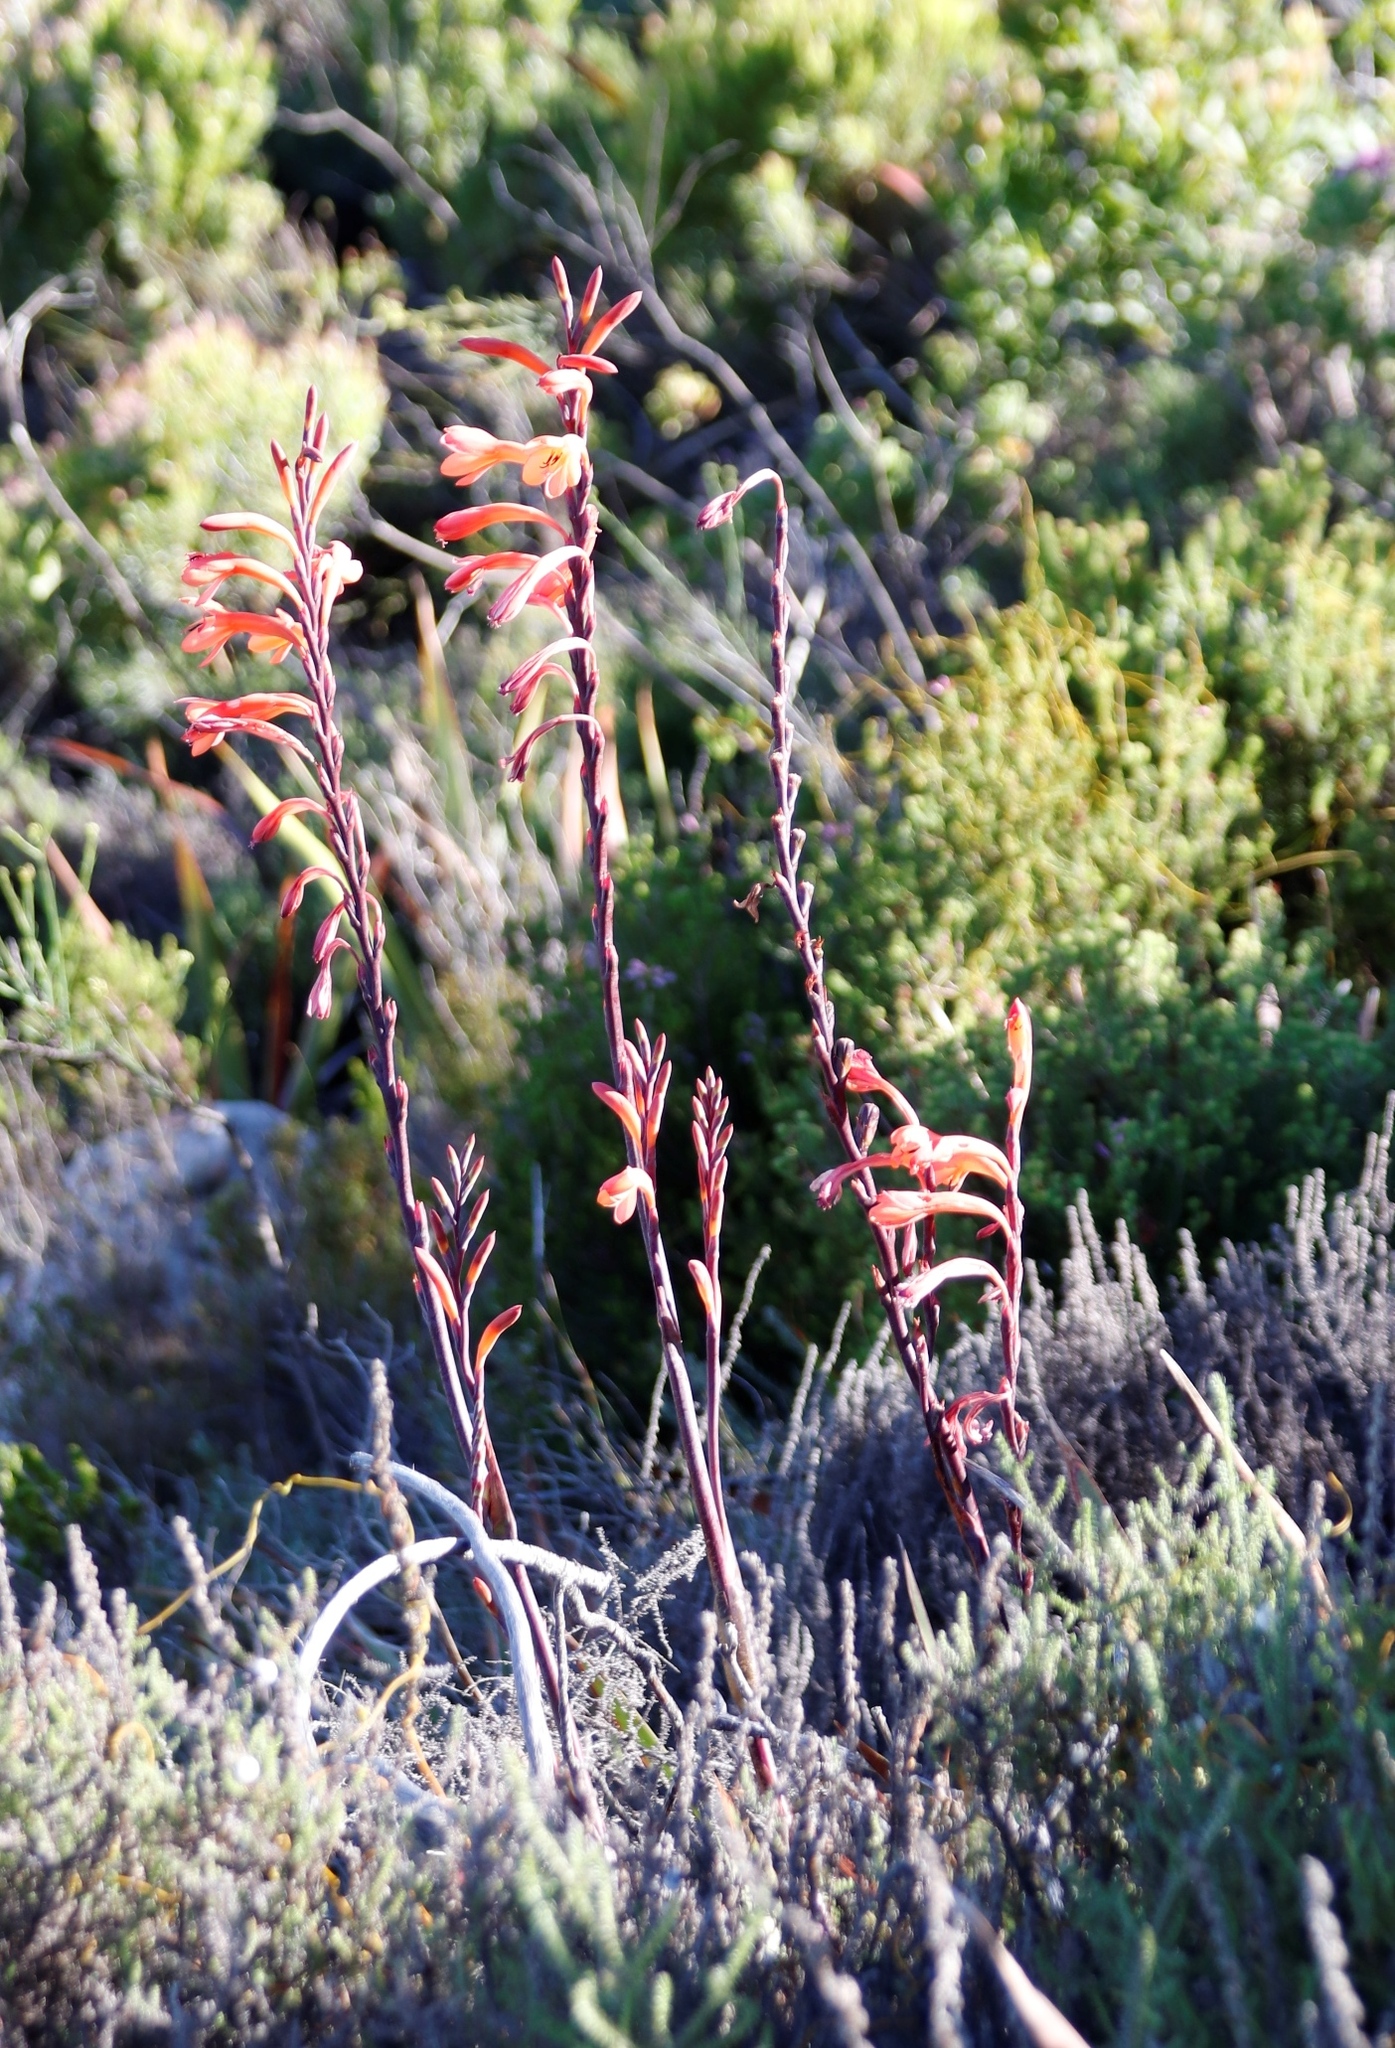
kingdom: Plantae
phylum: Tracheophyta
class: Liliopsida
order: Asparagales
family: Iridaceae
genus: Watsonia
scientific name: Watsonia tabularis
